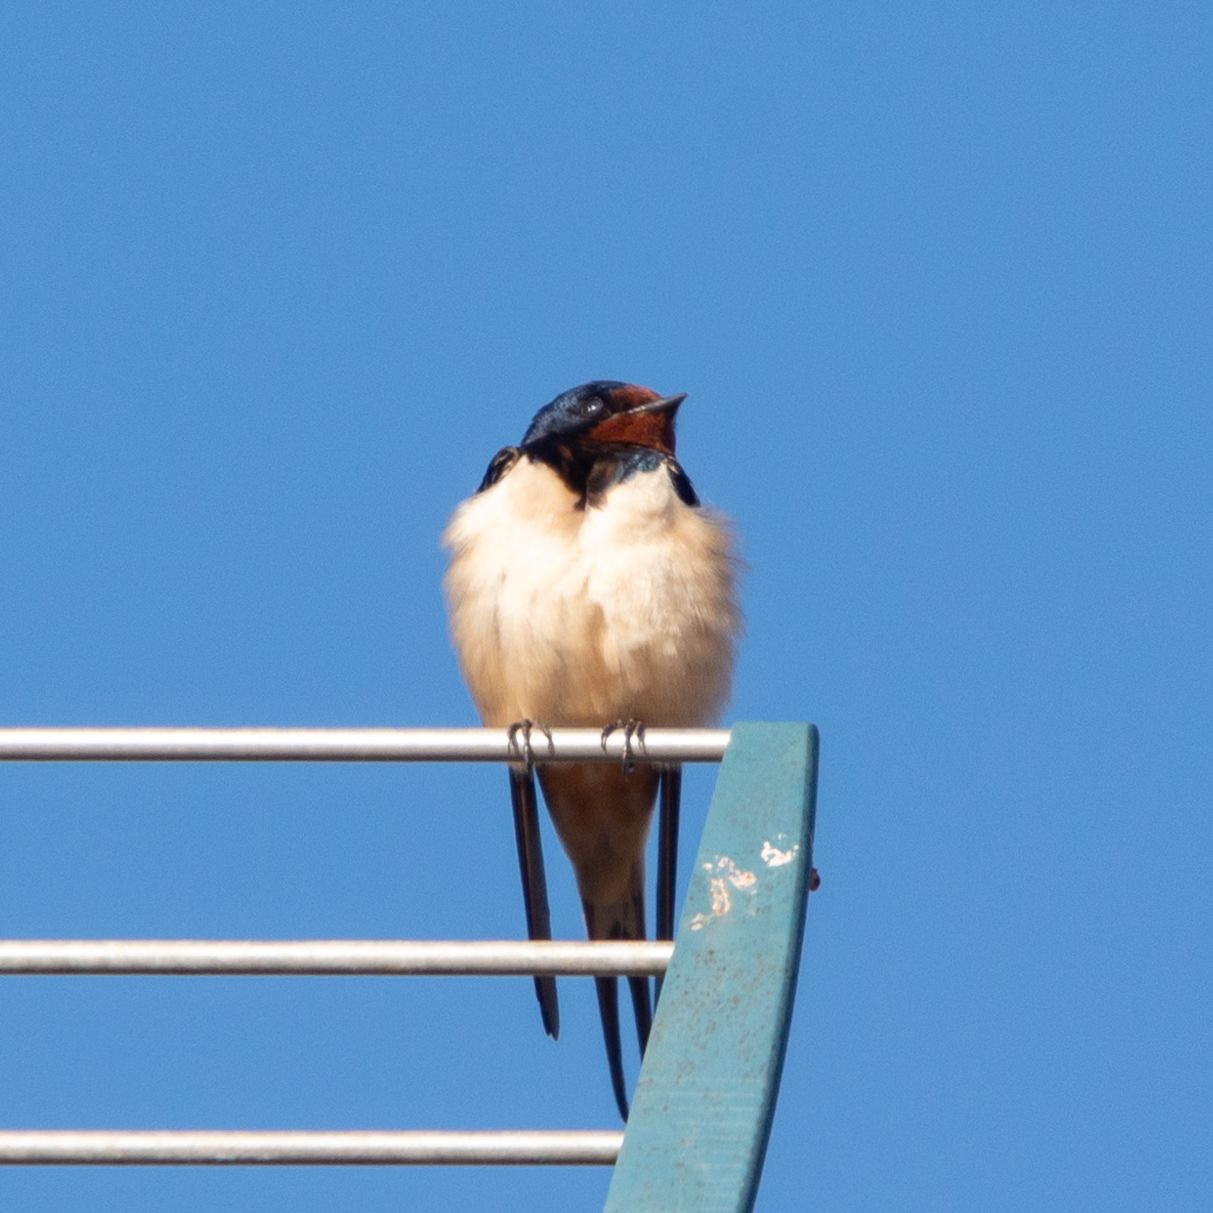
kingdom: Animalia
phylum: Chordata
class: Aves
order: Passeriformes
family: Hirundinidae
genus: Hirundo
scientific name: Hirundo rustica
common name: Barn swallow
